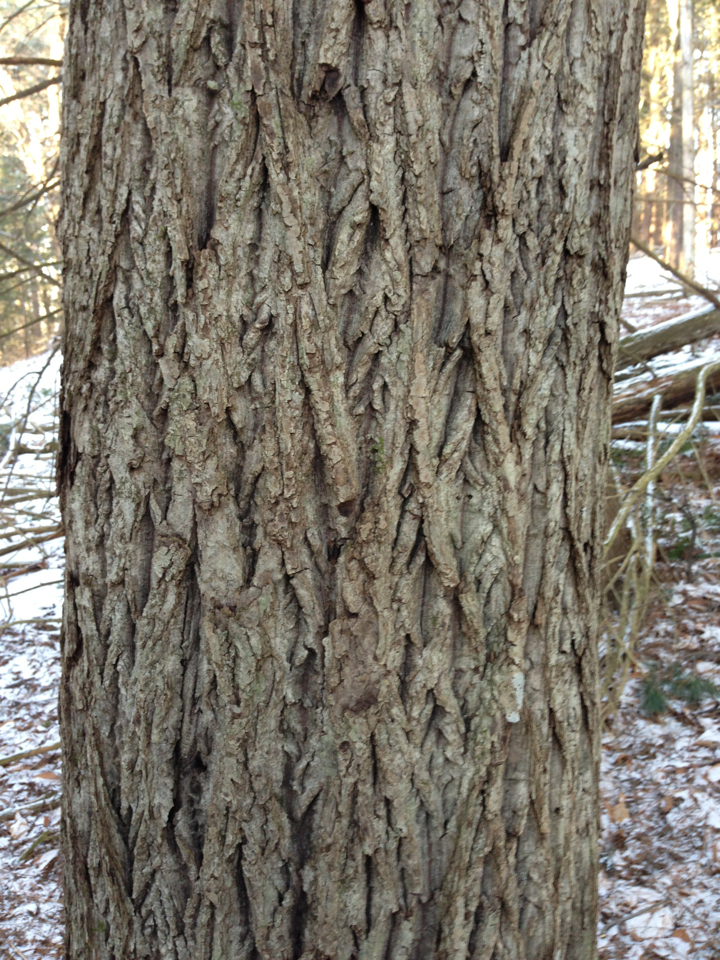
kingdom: Plantae
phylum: Tracheophyta
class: Magnoliopsida
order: Fagales
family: Juglandaceae
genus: Juglans
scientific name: Juglans cinerea
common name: Butternut
